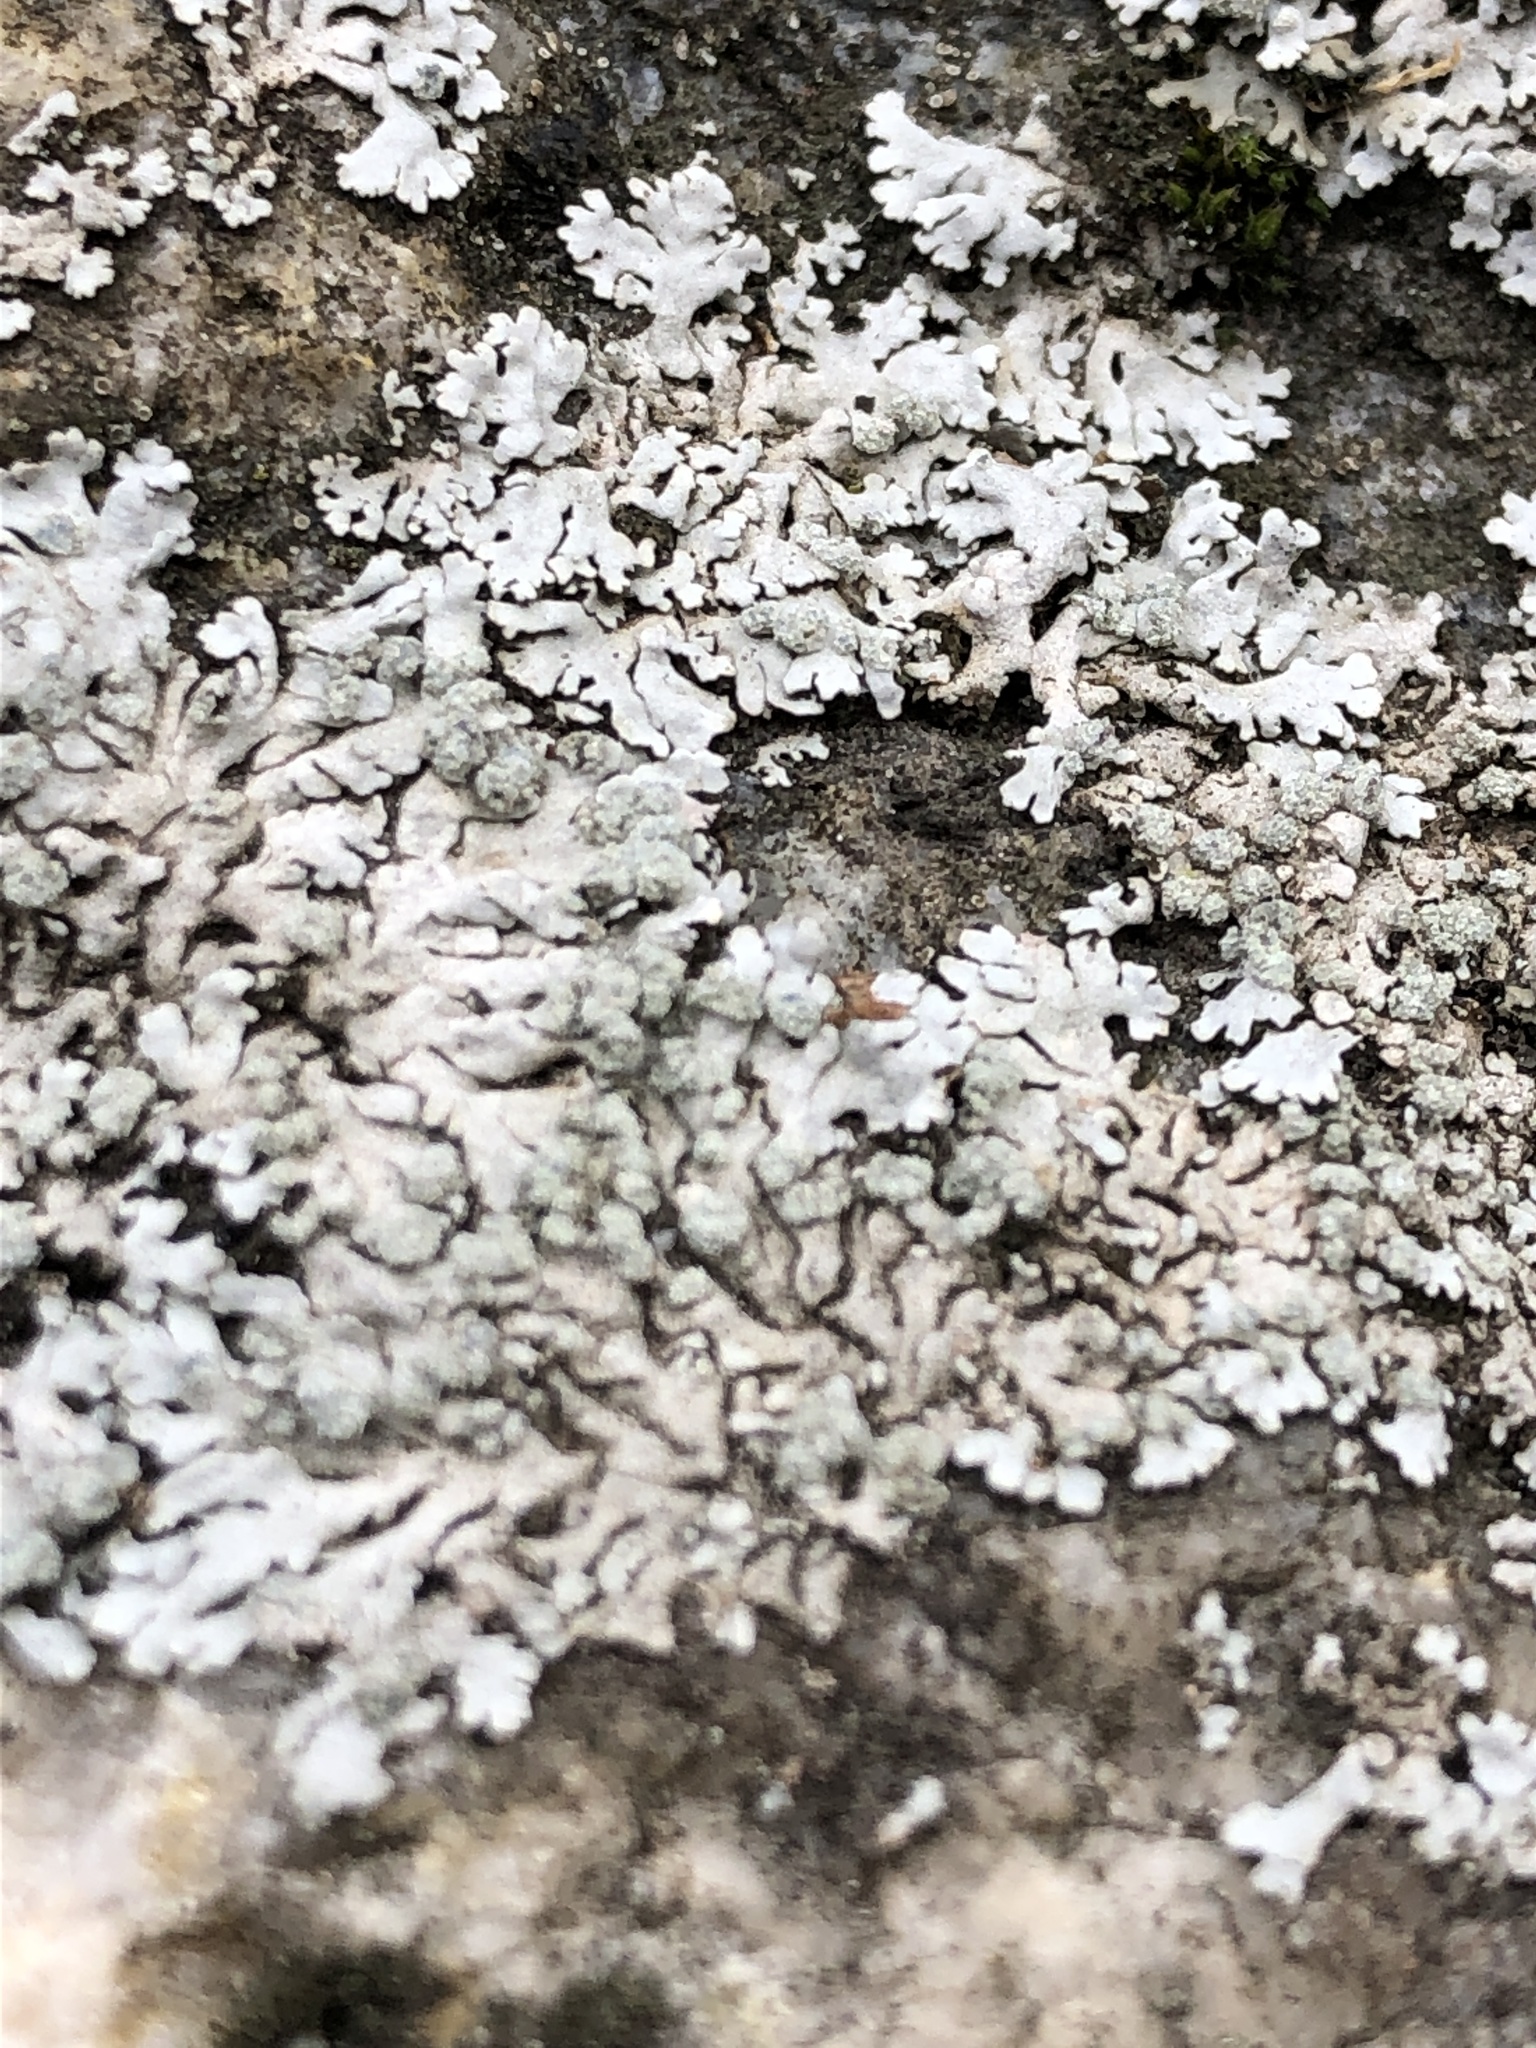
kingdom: Fungi
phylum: Ascomycota
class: Lecanoromycetes
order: Caliciales
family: Physciaceae
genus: Physcia
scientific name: Physcia caesia
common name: Blue-gray rosette lichen
